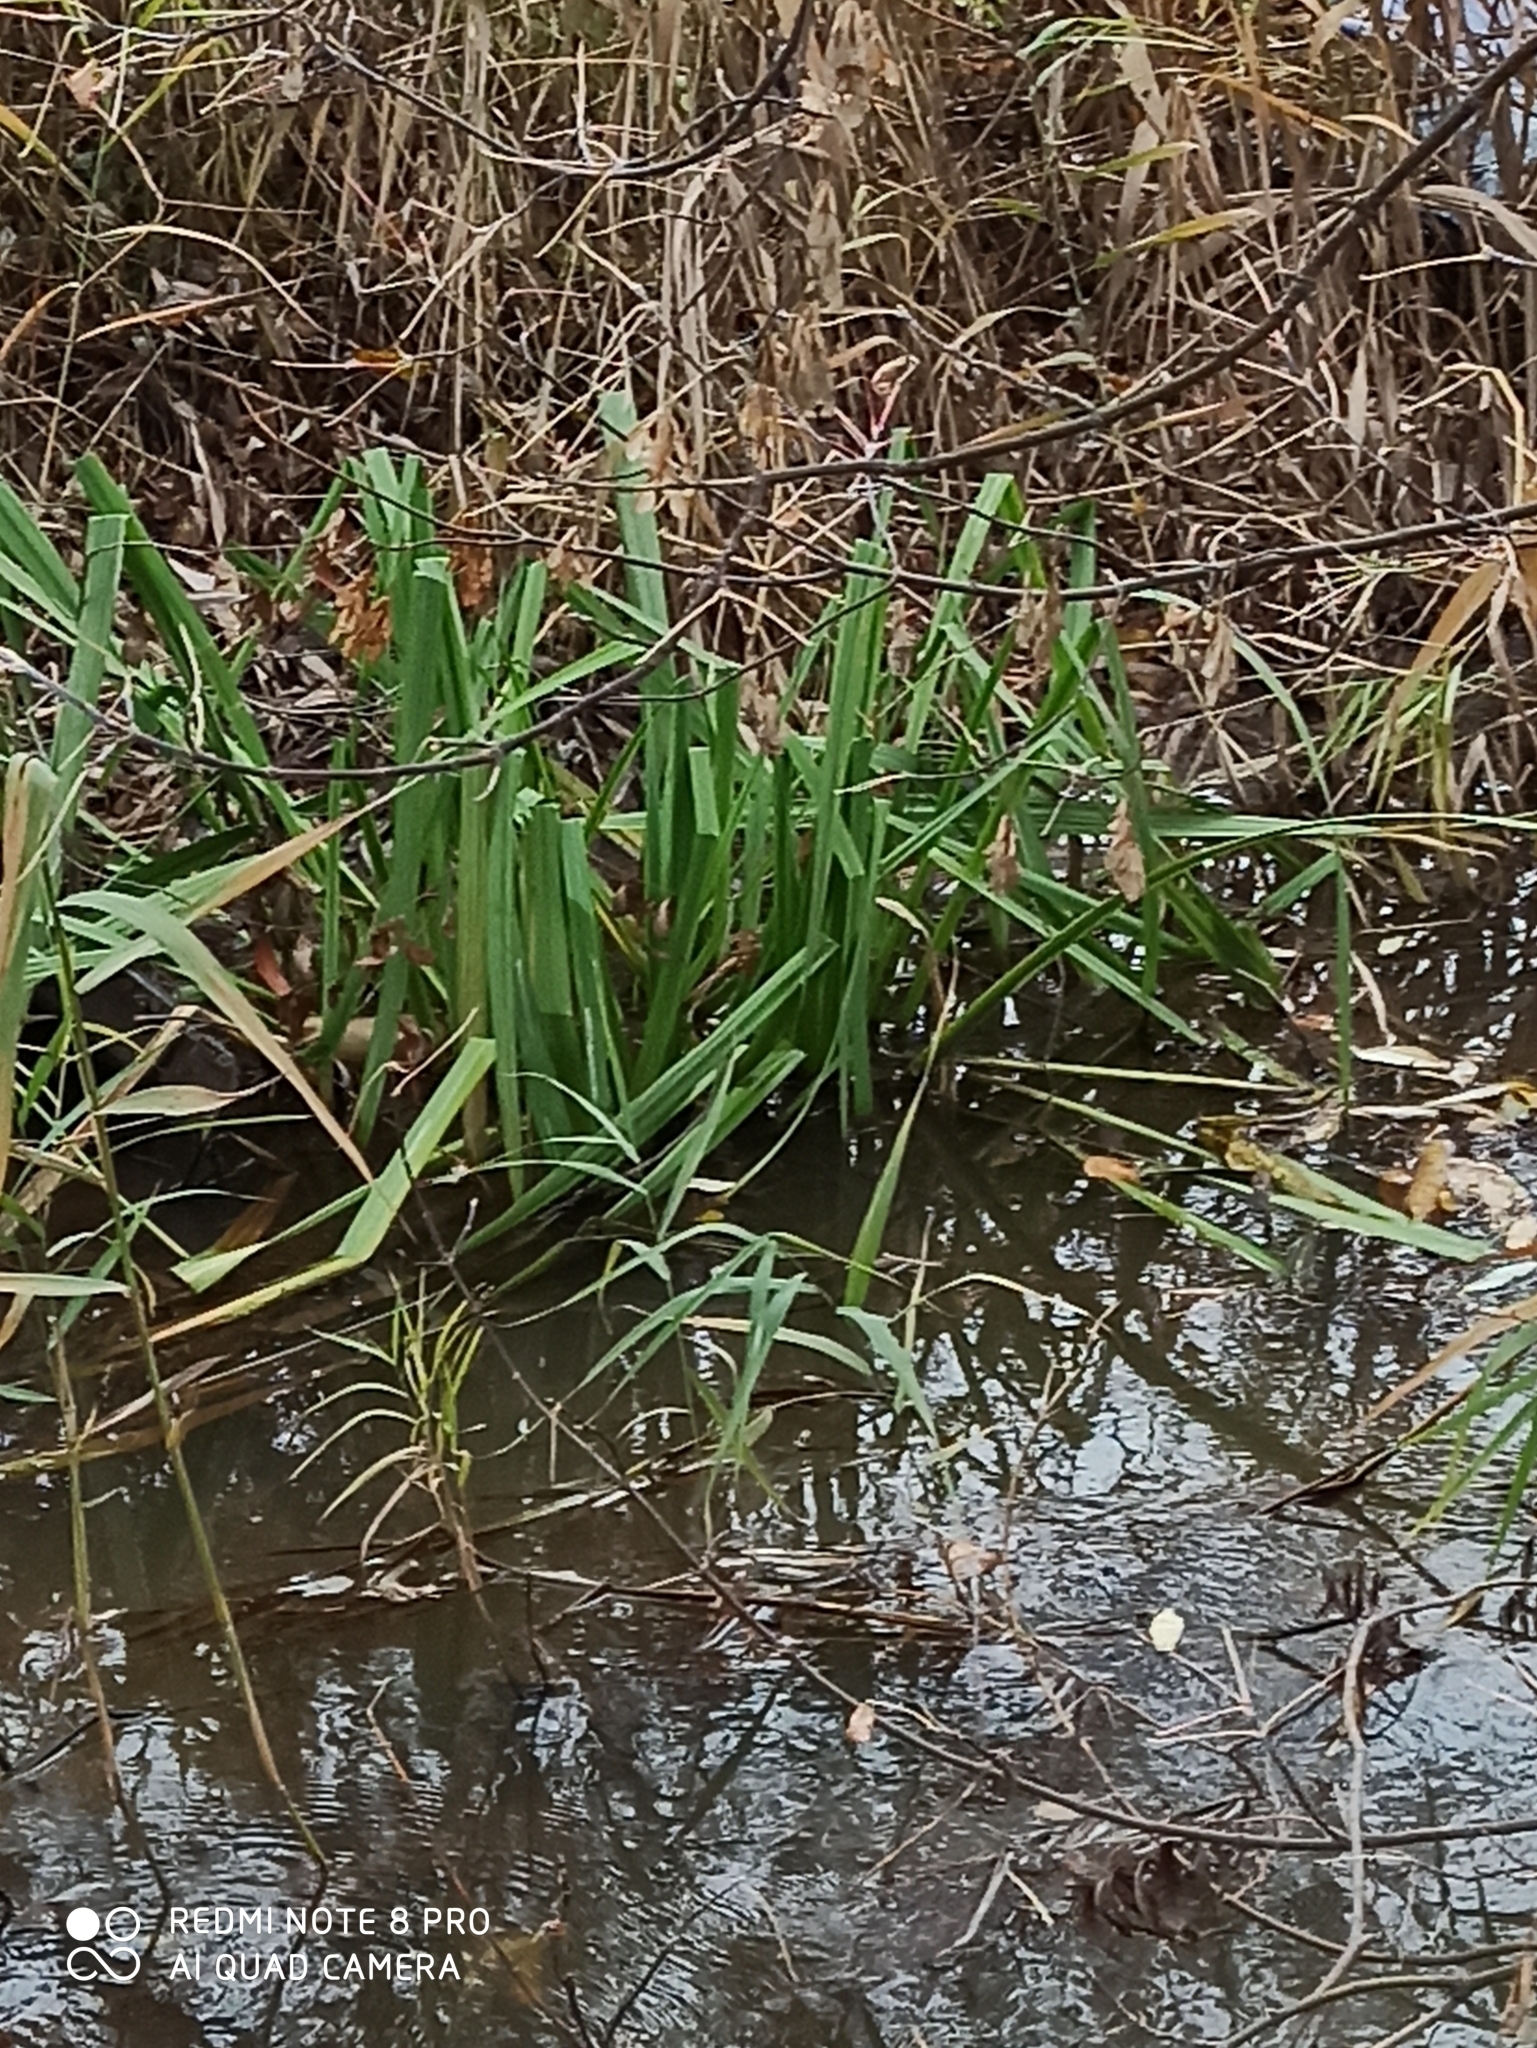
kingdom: Plantae
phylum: Tracheophyta
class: Liliopsida
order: Asparagales
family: Iridaceae
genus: Iris
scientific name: Iris pseudacorus
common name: Yellow flag
